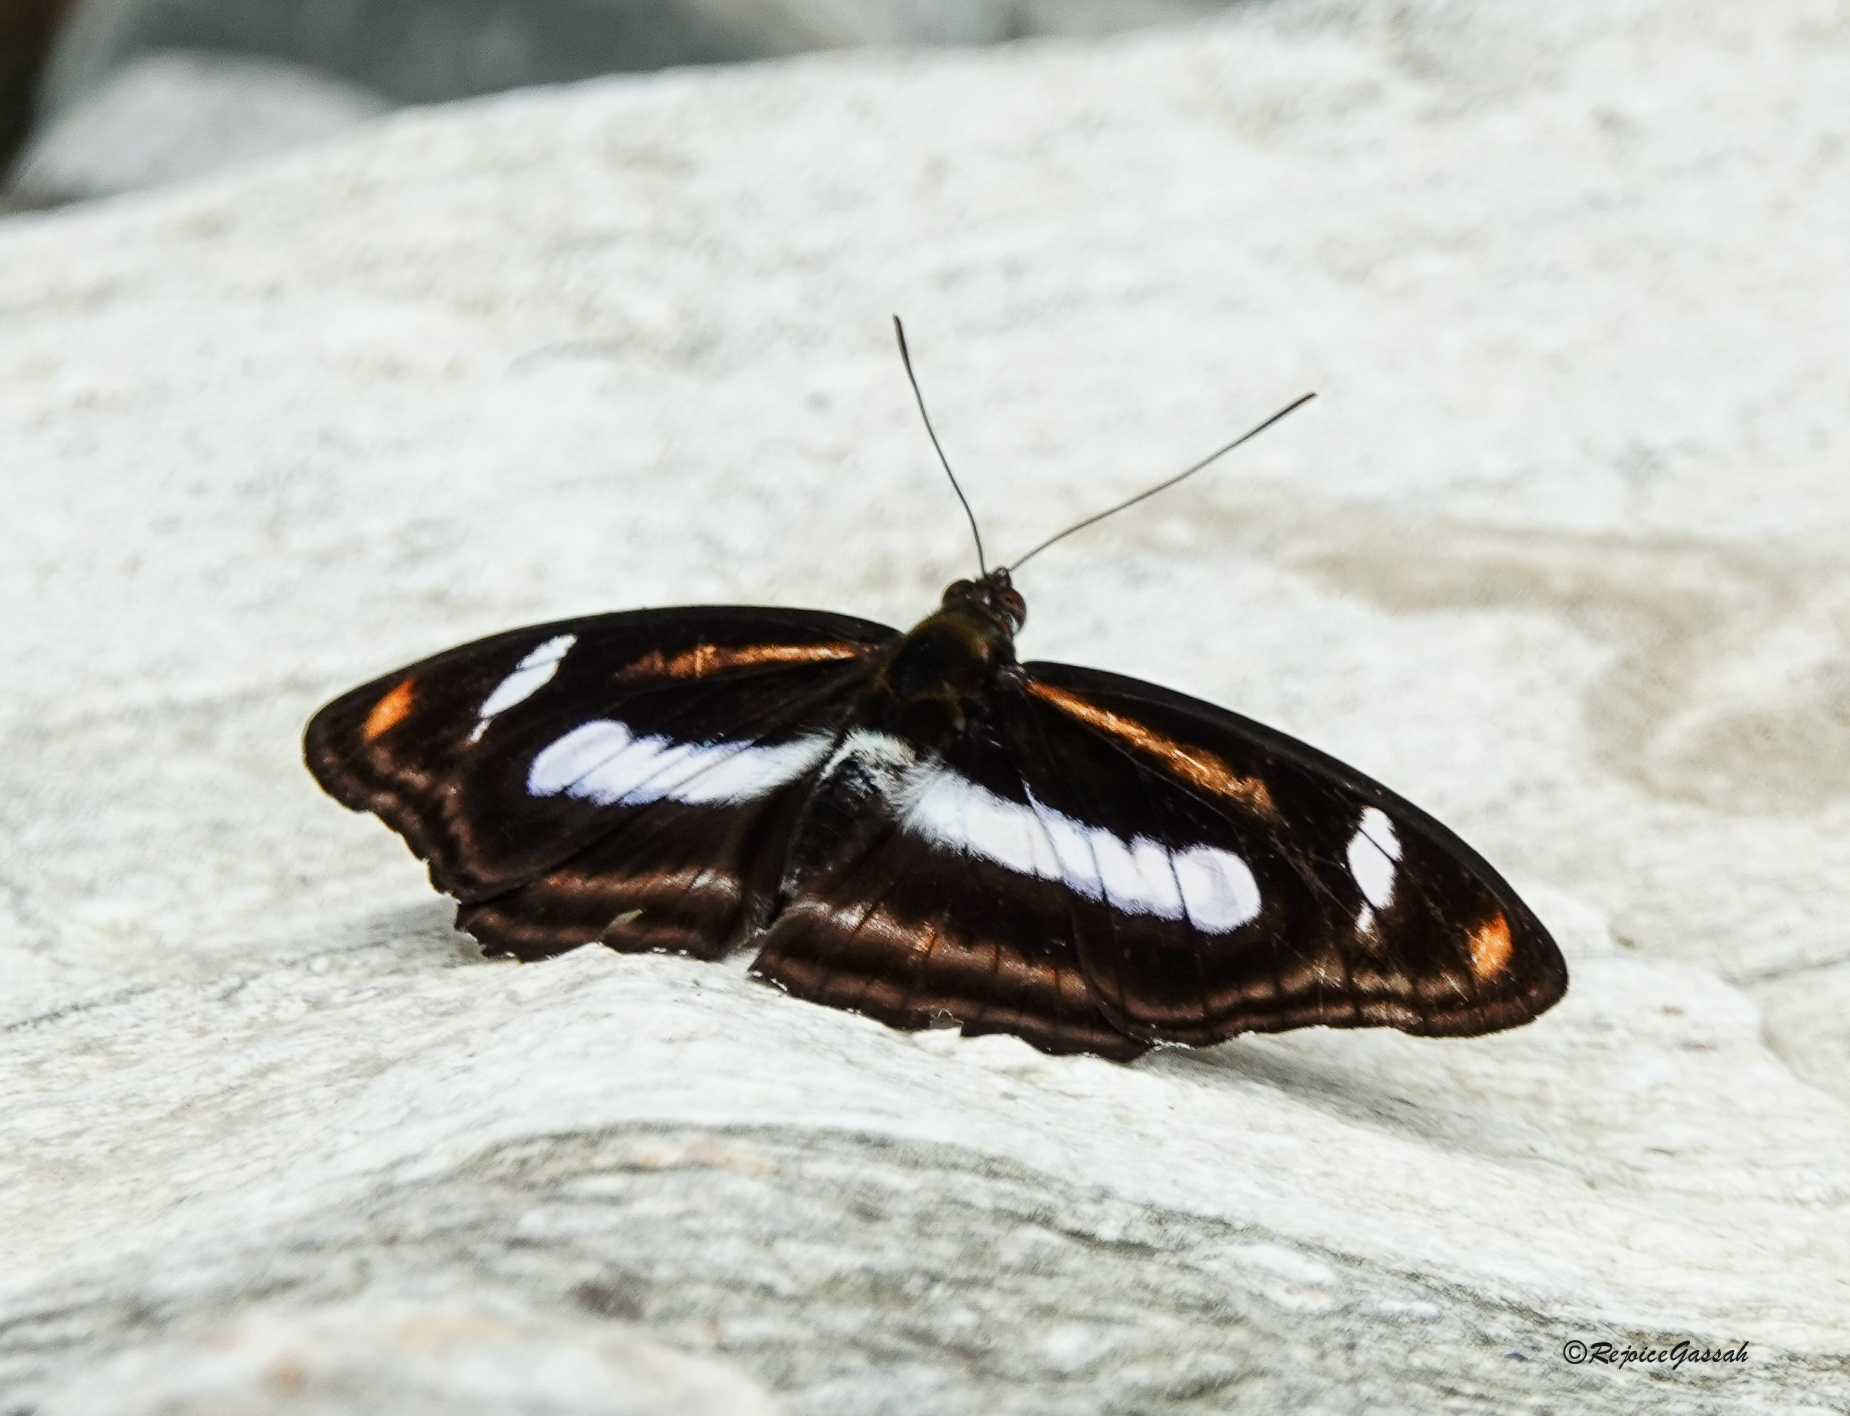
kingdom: Animalia
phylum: Arthropoda
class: Insecta
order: Lepidoptera
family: Nymphalidae
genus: Pantoporia
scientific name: Pantoporia cama
